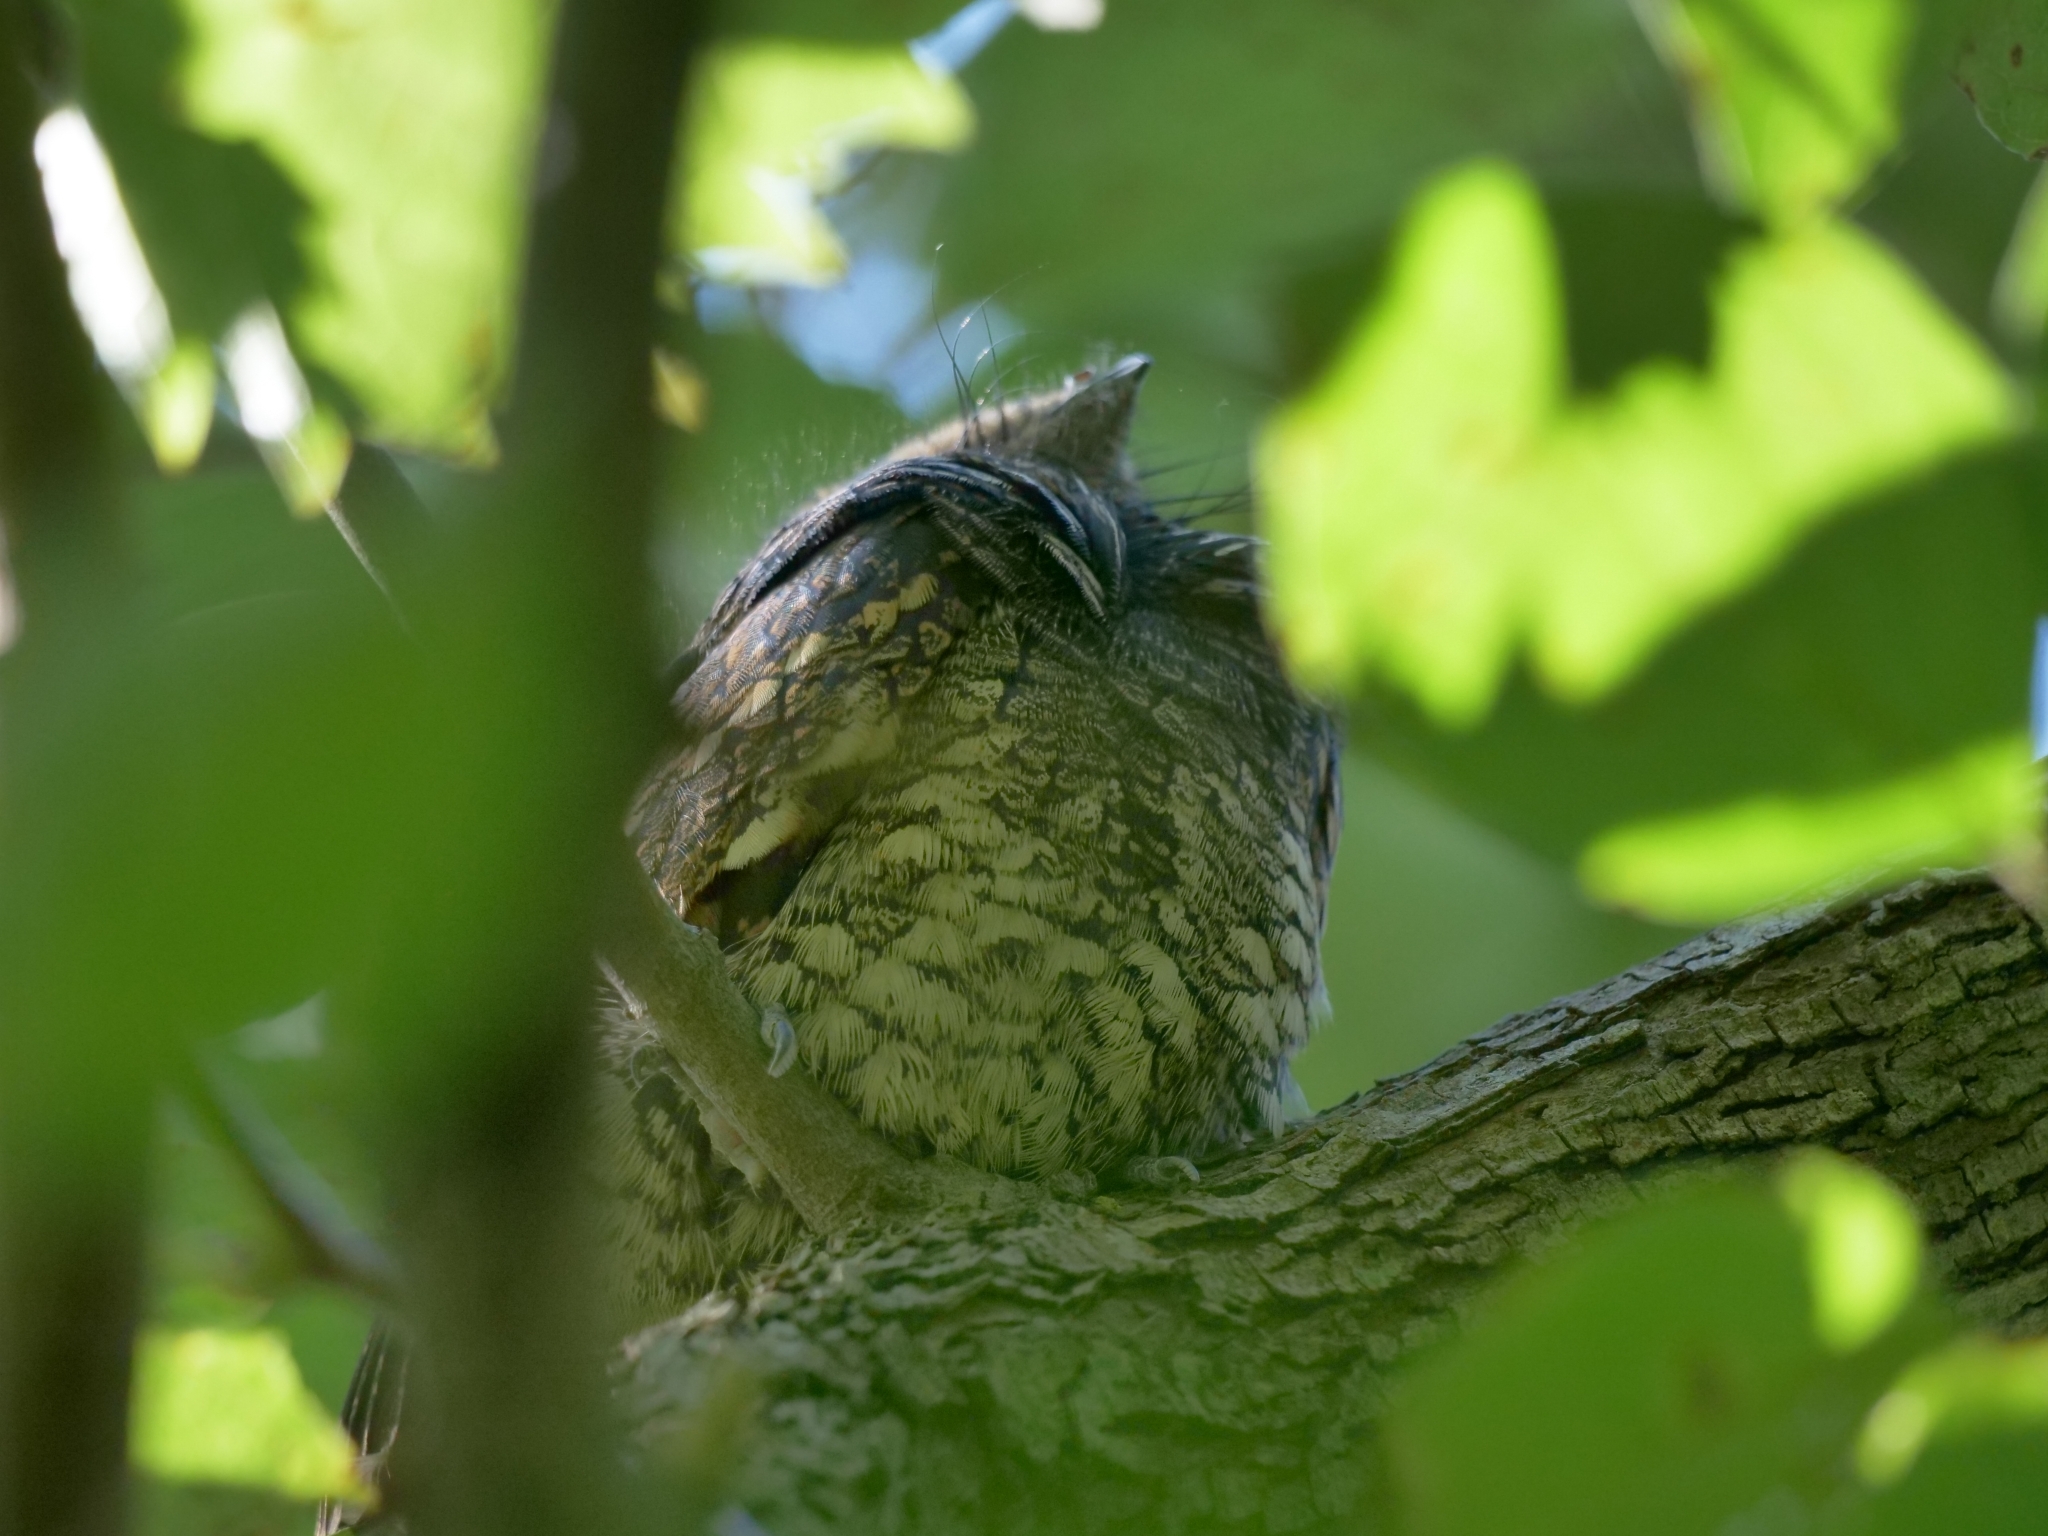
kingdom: Animalia
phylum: Chordata
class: Aves
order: Caprimulgiformes
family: Caprimulgidae
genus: Antrostomus
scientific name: Antrostomus vociferus
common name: Eastern whip-poor-will
